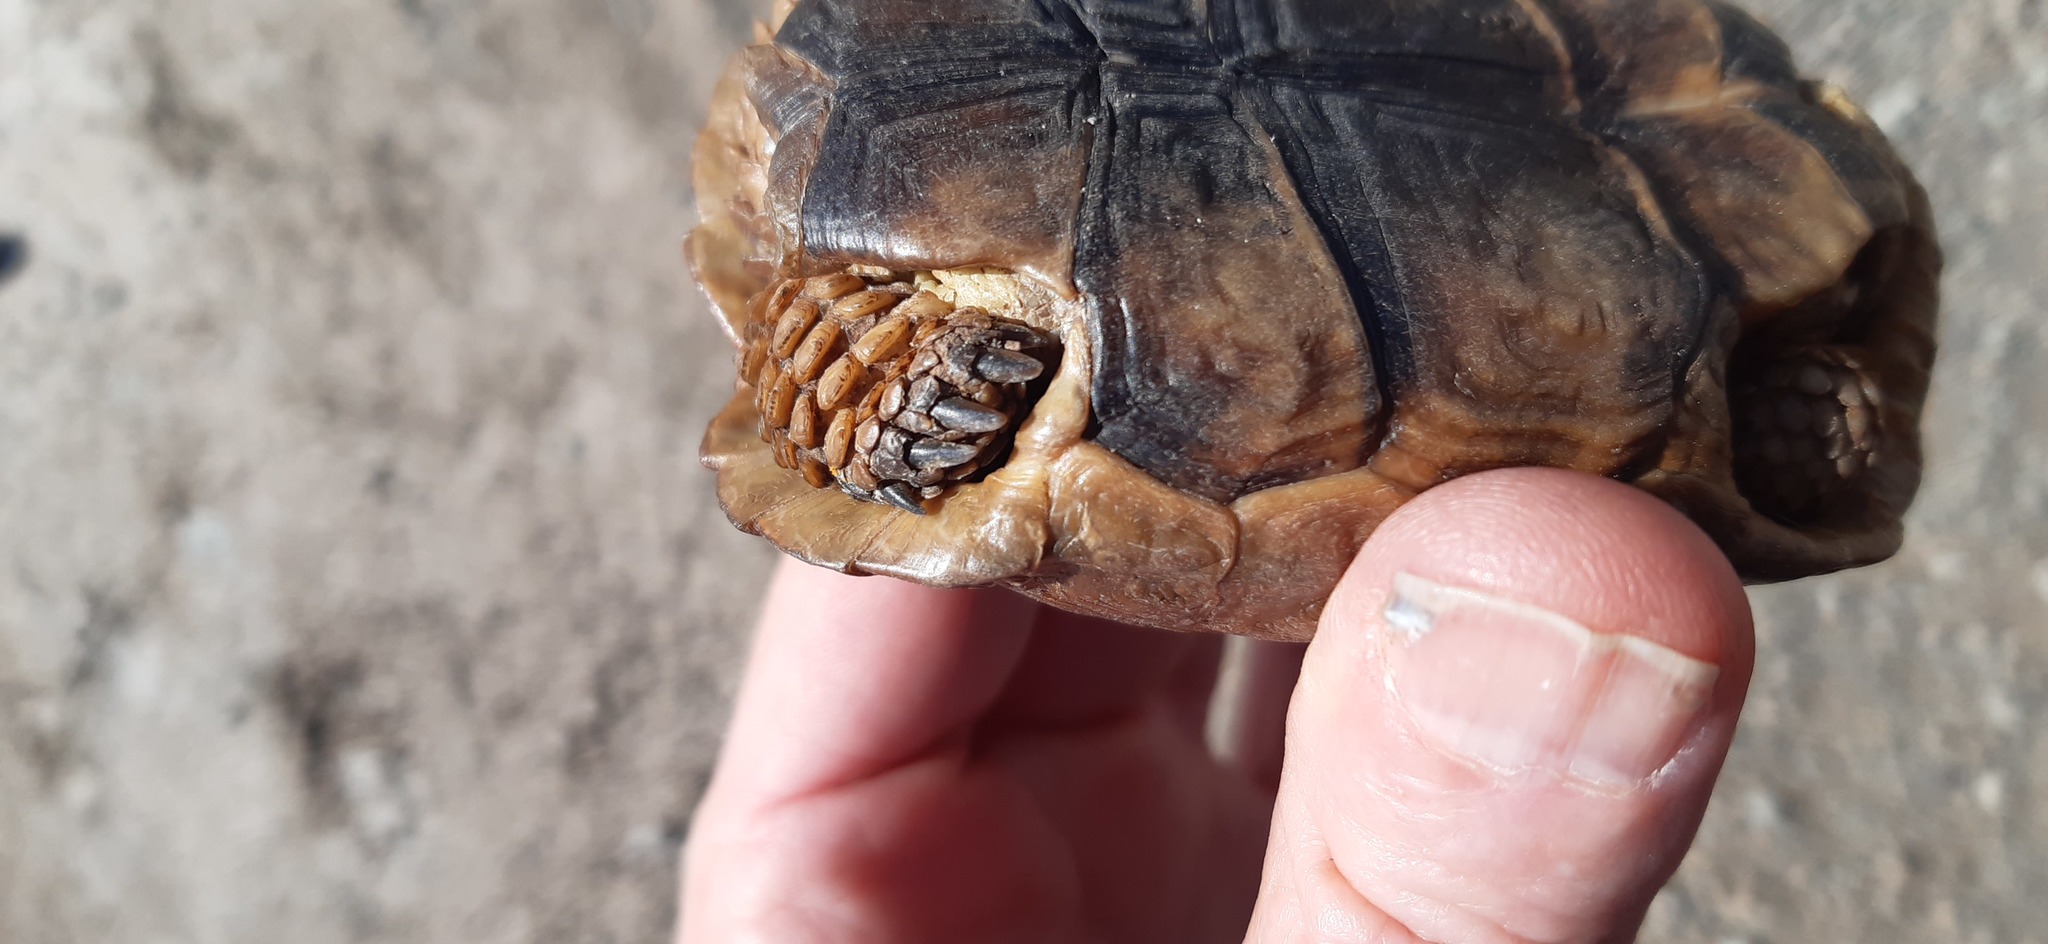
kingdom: Animalia
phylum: Chordata
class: Testudines
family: Testudinidae
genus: Chersobius
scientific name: Chersobius boulengeri
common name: Donner-weer tortoise
